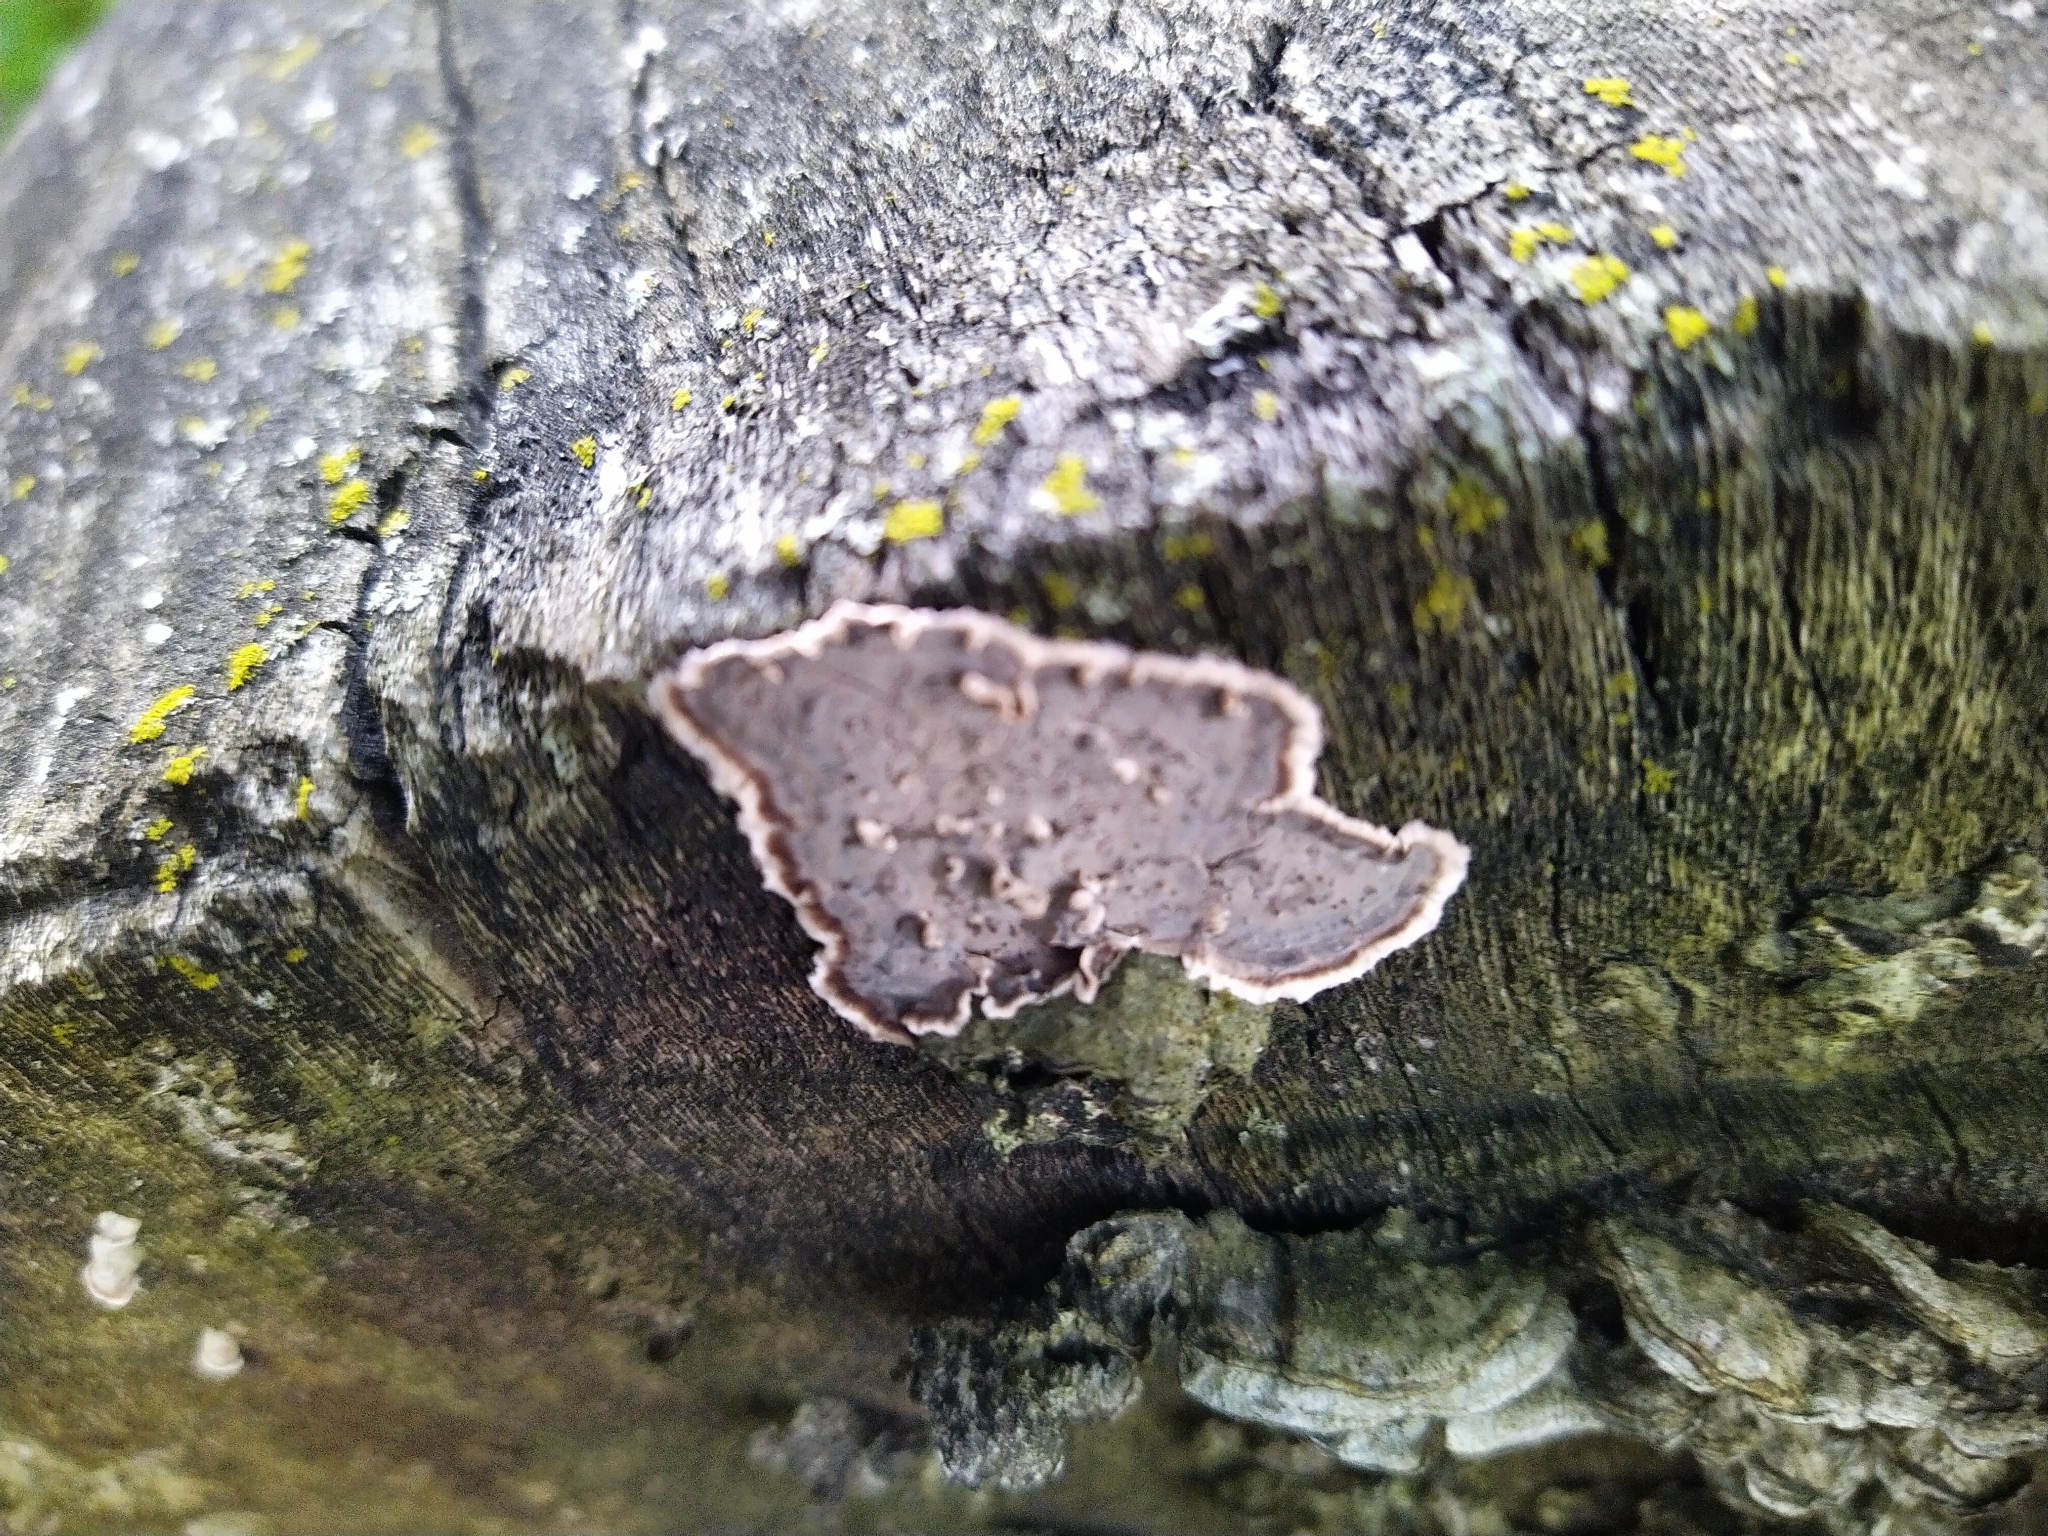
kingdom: Fungi
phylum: Basidiomycota
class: Agaricomycetes
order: Russulales
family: Peniophoraceae
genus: Peniophora
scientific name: Peniophora albobadia
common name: Giraffe spots
